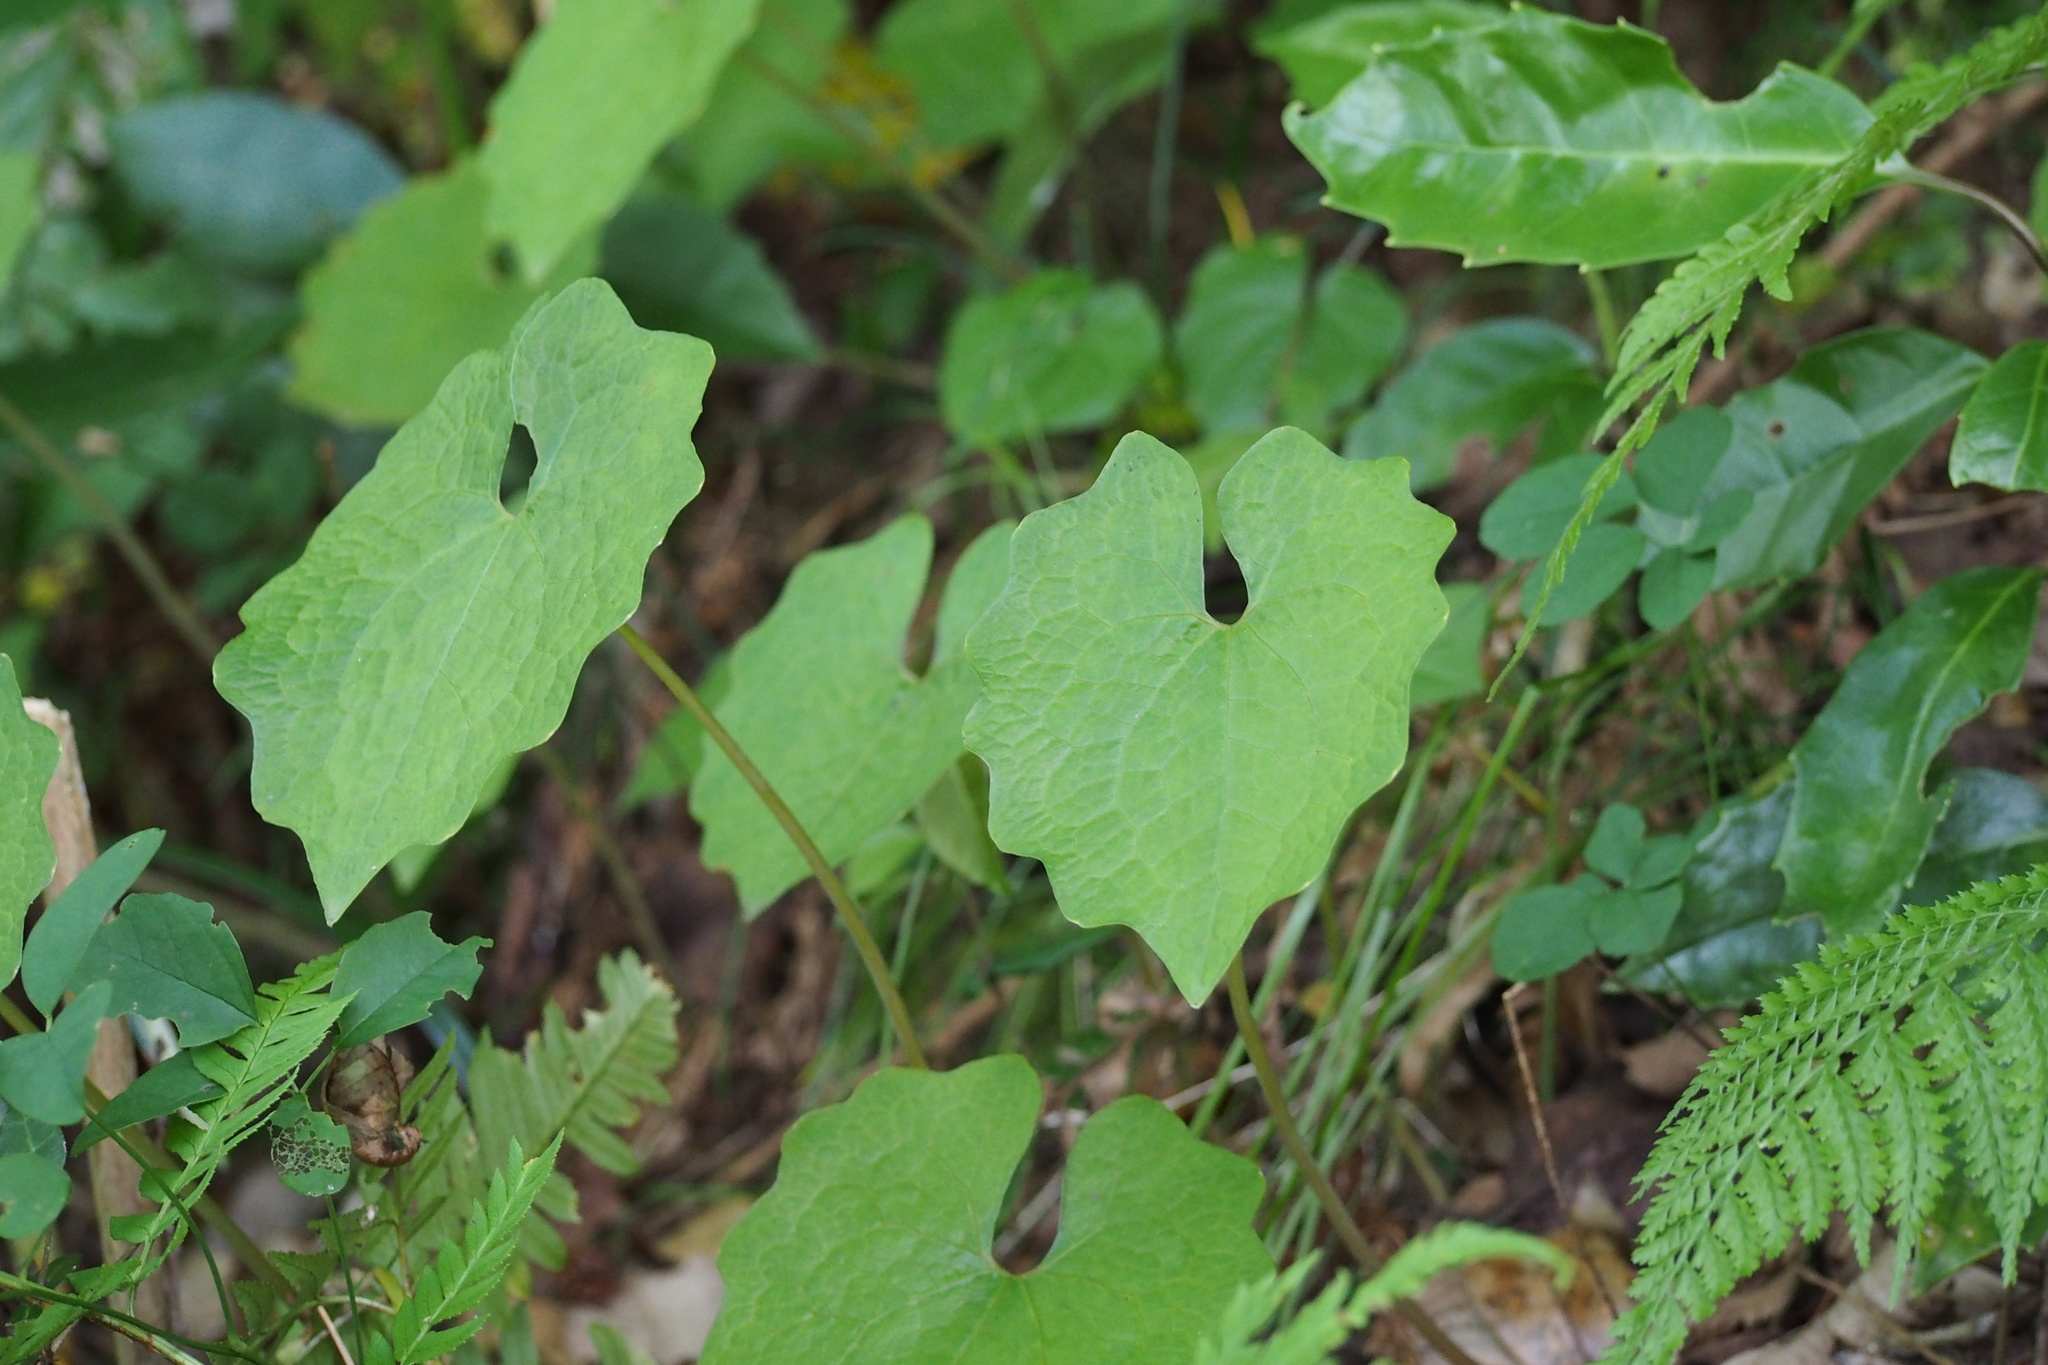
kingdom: Plantae
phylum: Tracheophyta
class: Magnoliopsida
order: Ranunculales
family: Papaveraceae
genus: Eomecon
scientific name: Eomecon chionantha
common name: Dawn-poppy
